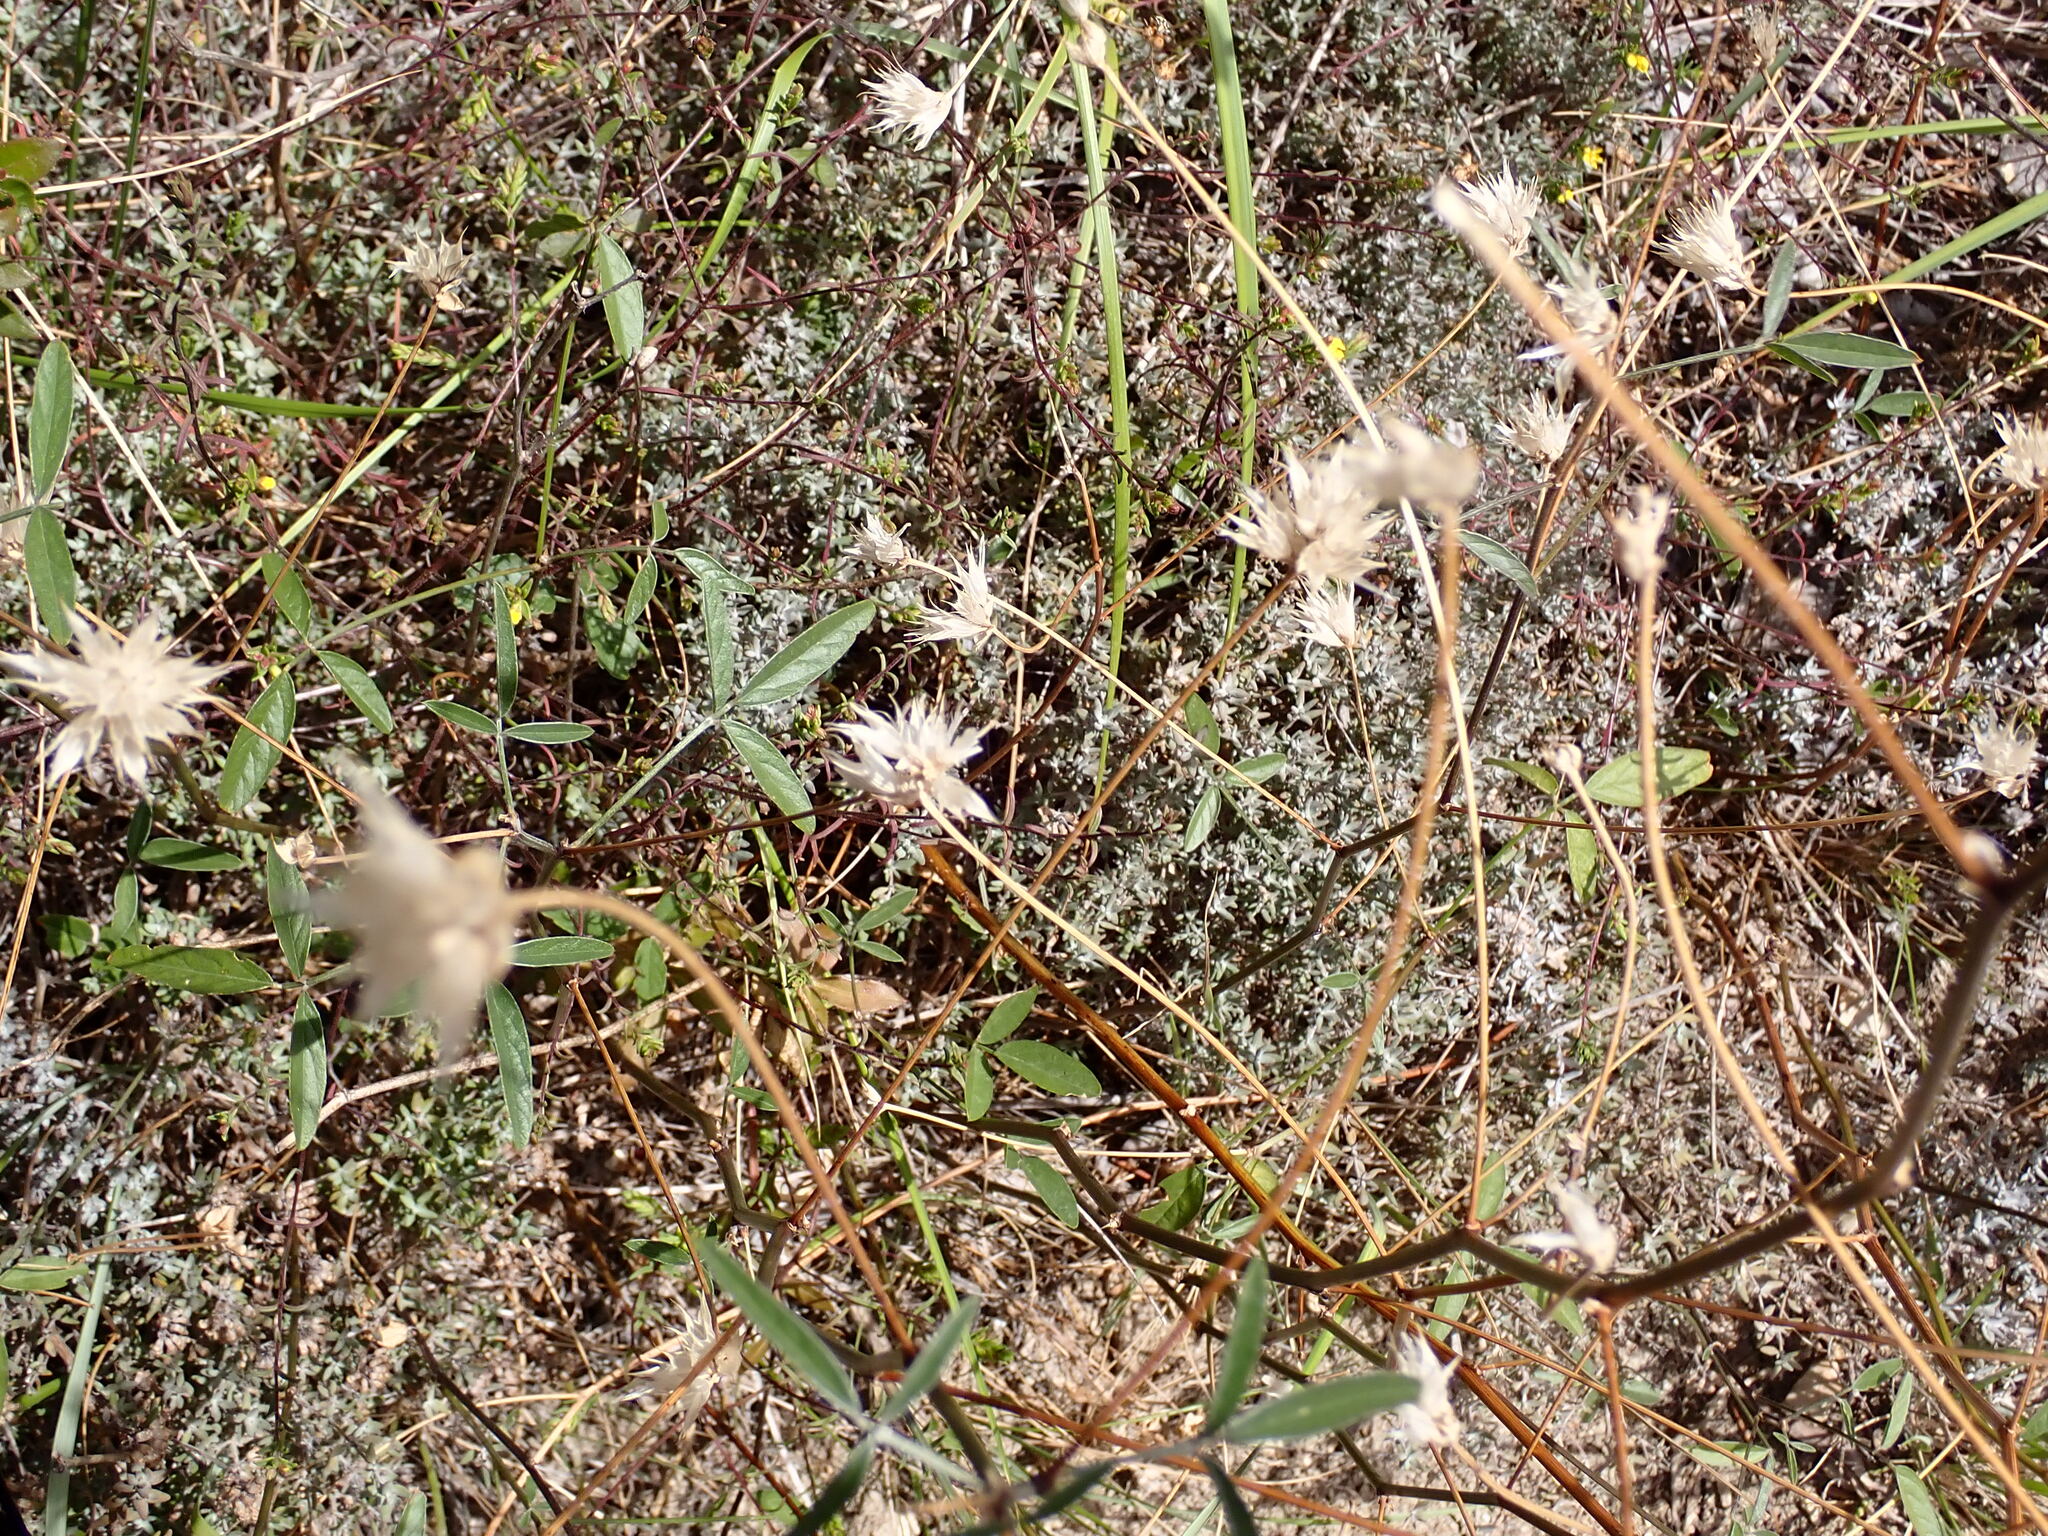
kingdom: Plantae
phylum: Tracheophyta
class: Magnoliopsida
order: Fabales
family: Fabaceae
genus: Bituminaria
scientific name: Bituminaria bituminosa
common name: Arabian pea
